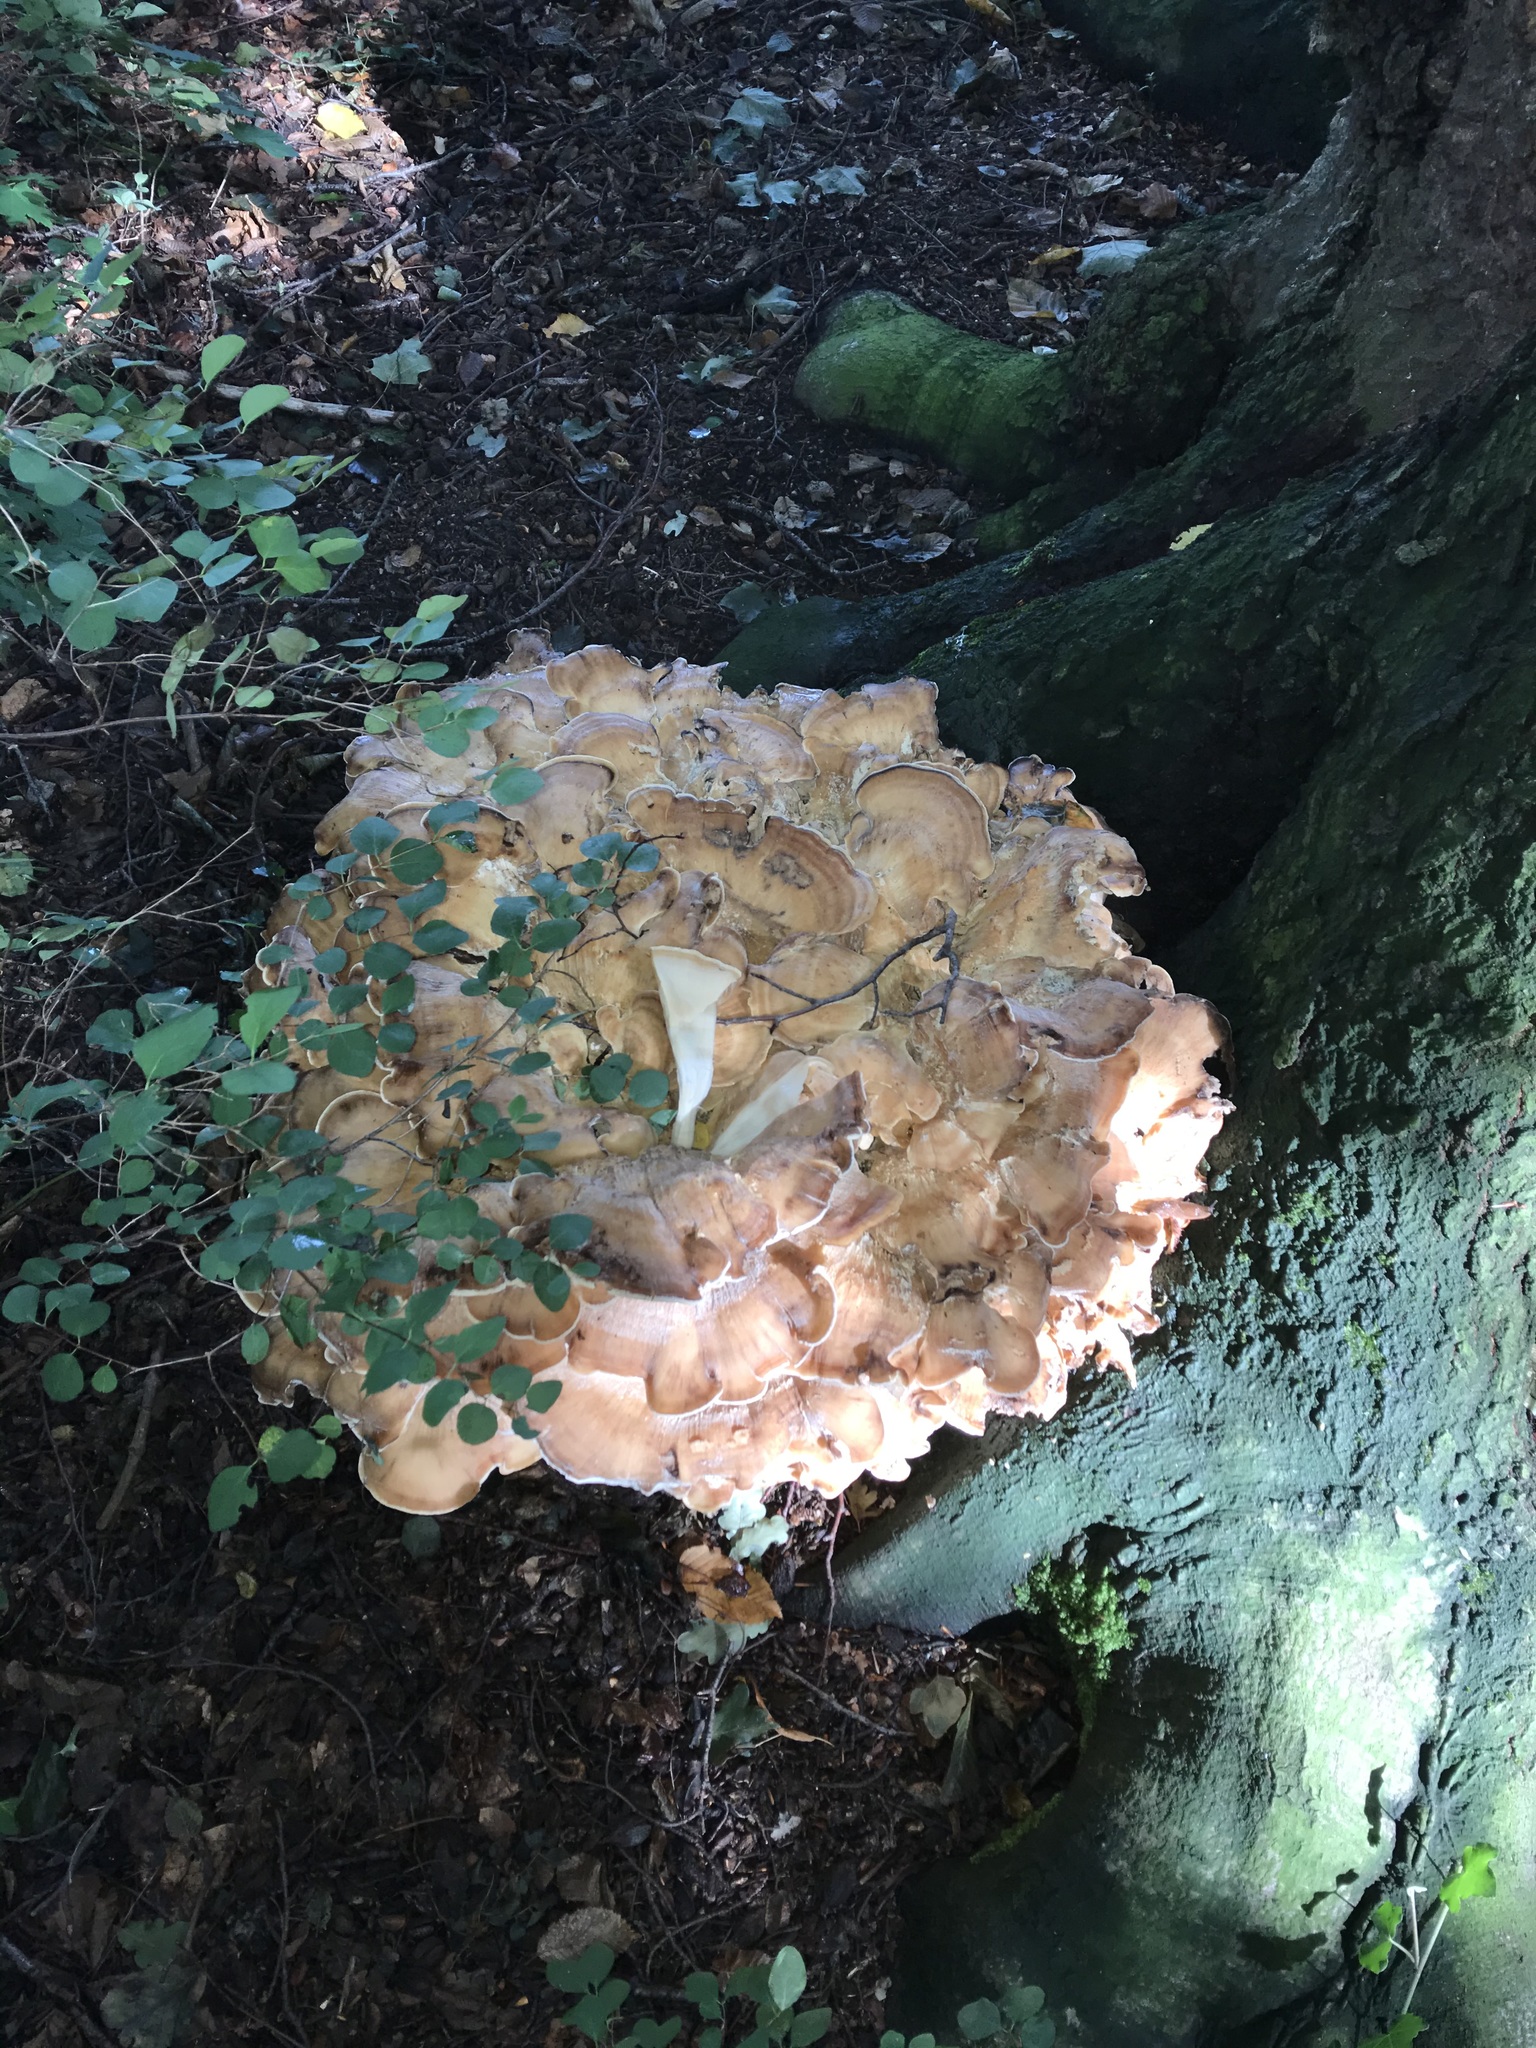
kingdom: Fungi
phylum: Basidiomycota
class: Agaricomycetes
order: Polyporales
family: Meripilaceae
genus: Meripilus
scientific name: Meripilus giganteus
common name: Giant polypore
